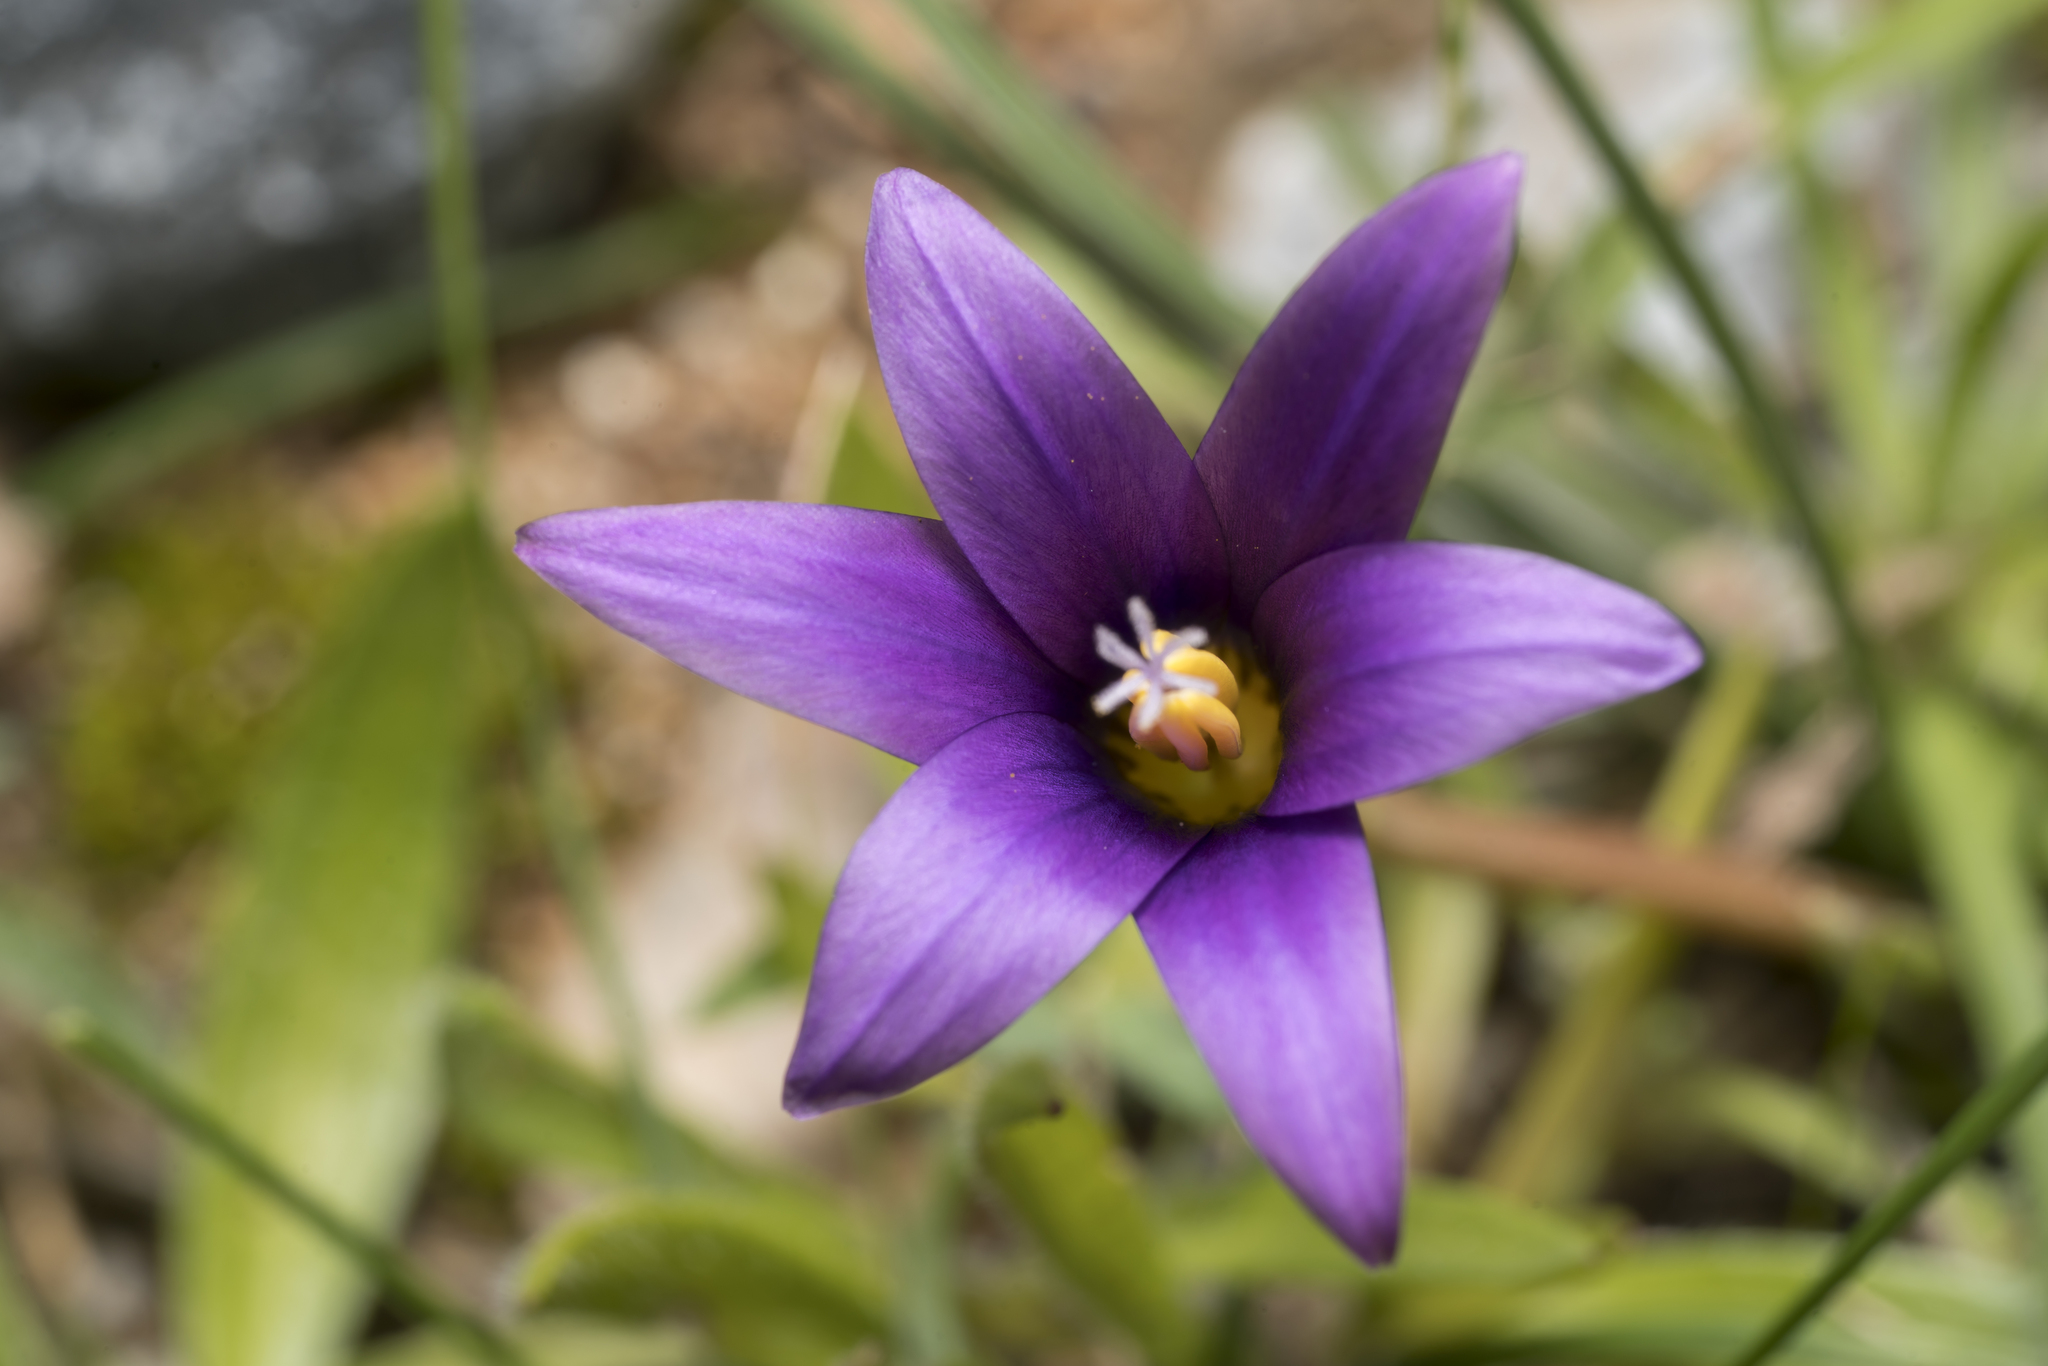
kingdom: Plantae
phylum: Tracheophyta
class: Liliopsida
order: Asparagales
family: Iridaceae
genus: Romulea
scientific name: Romulea tempskyana
